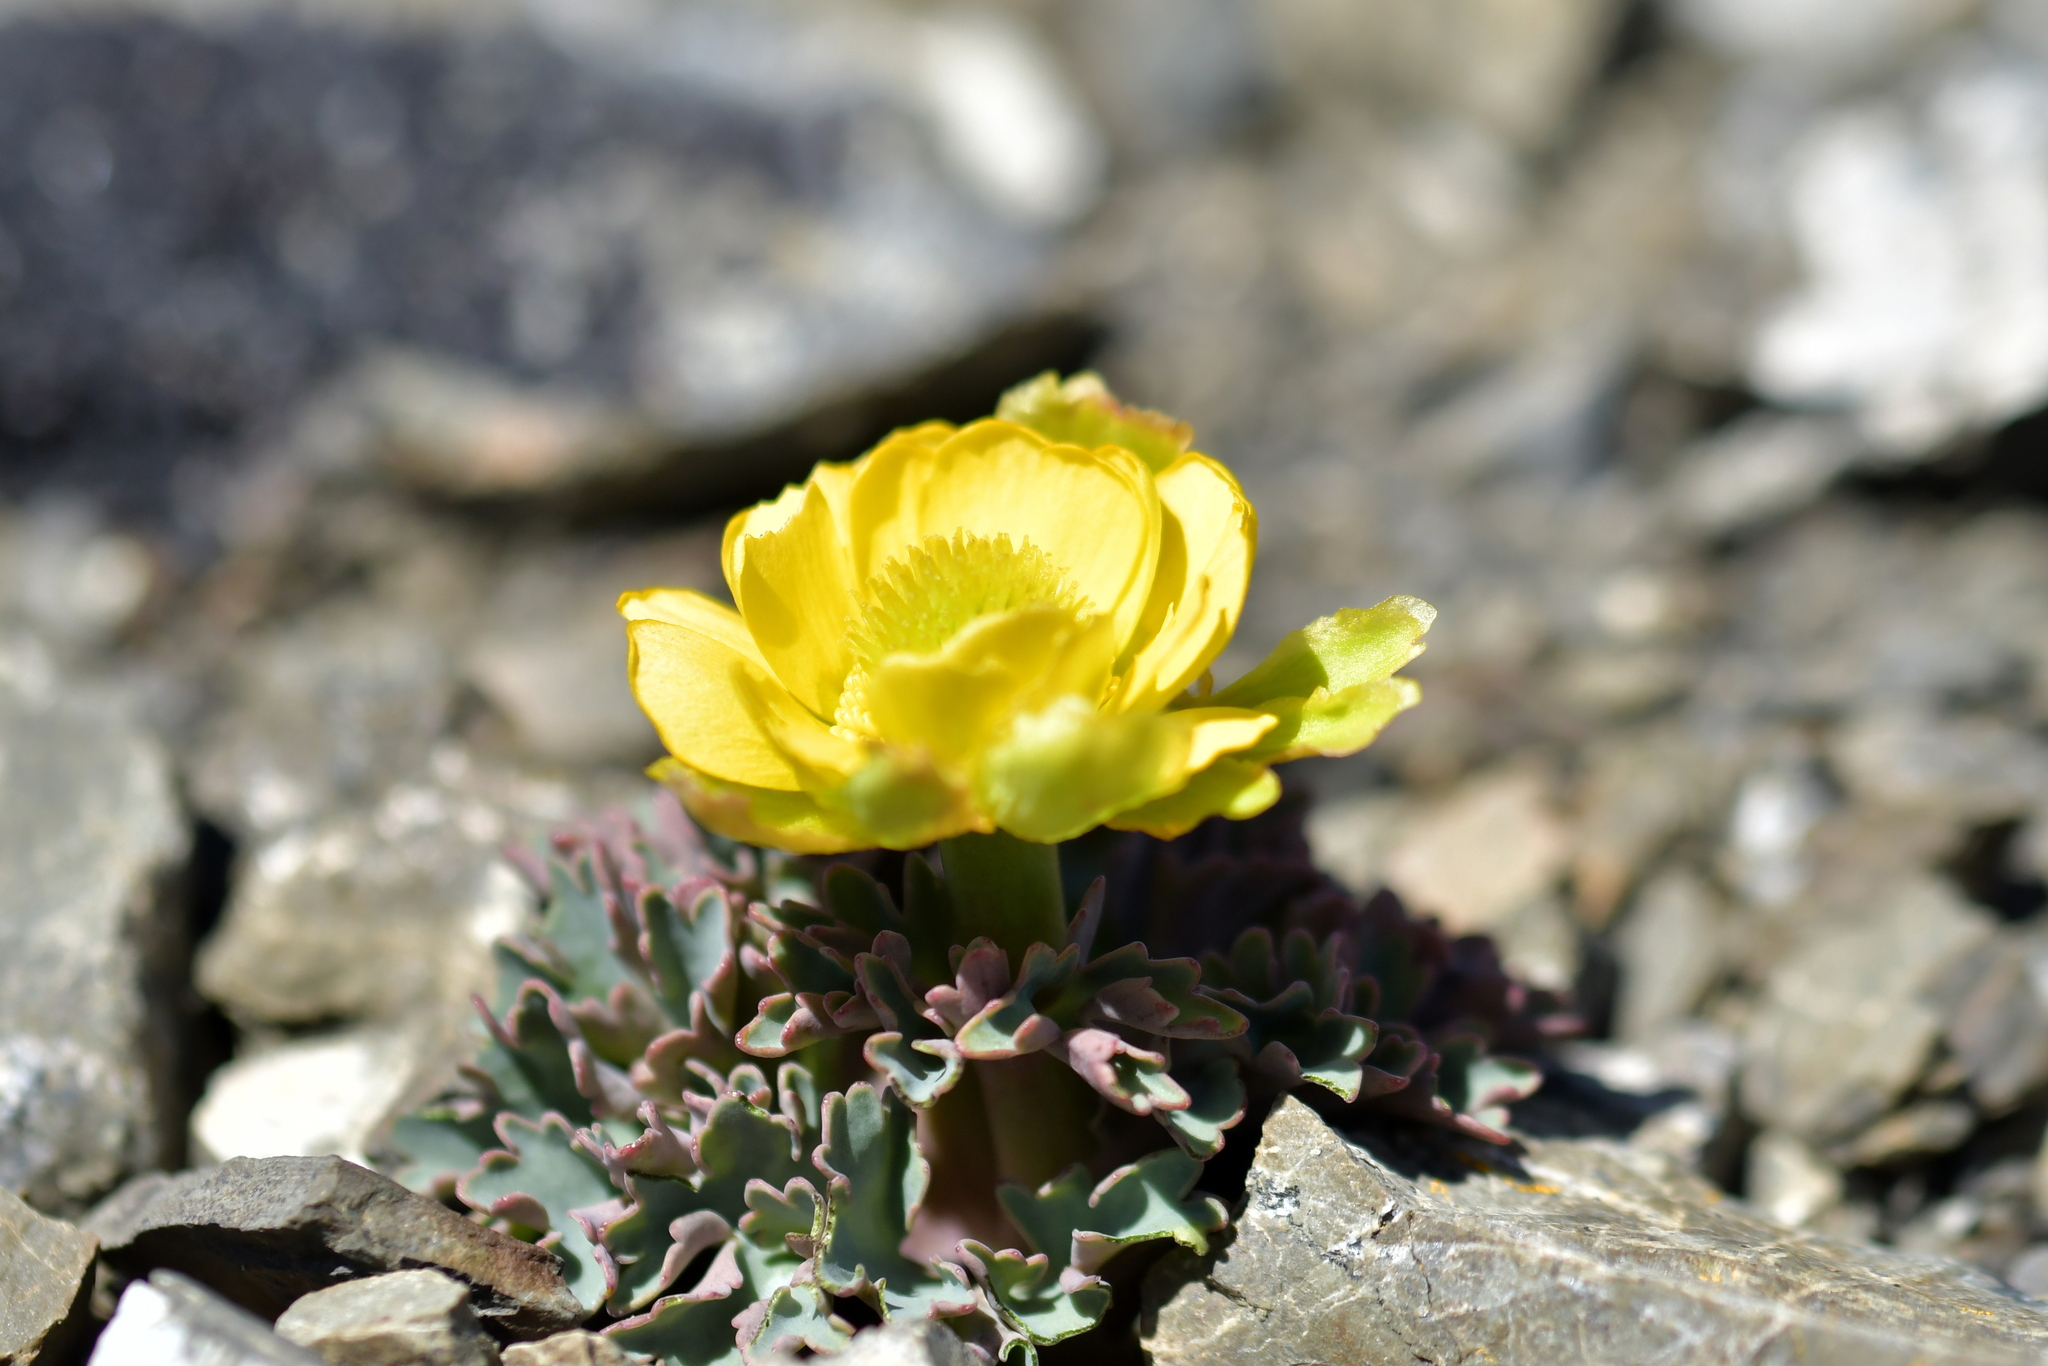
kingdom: Plantae
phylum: Tracheophyta
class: Magnoliopsida
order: Ranunculales
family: Ranunculaceae
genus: Ranunculus
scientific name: Ranunculus haastii
